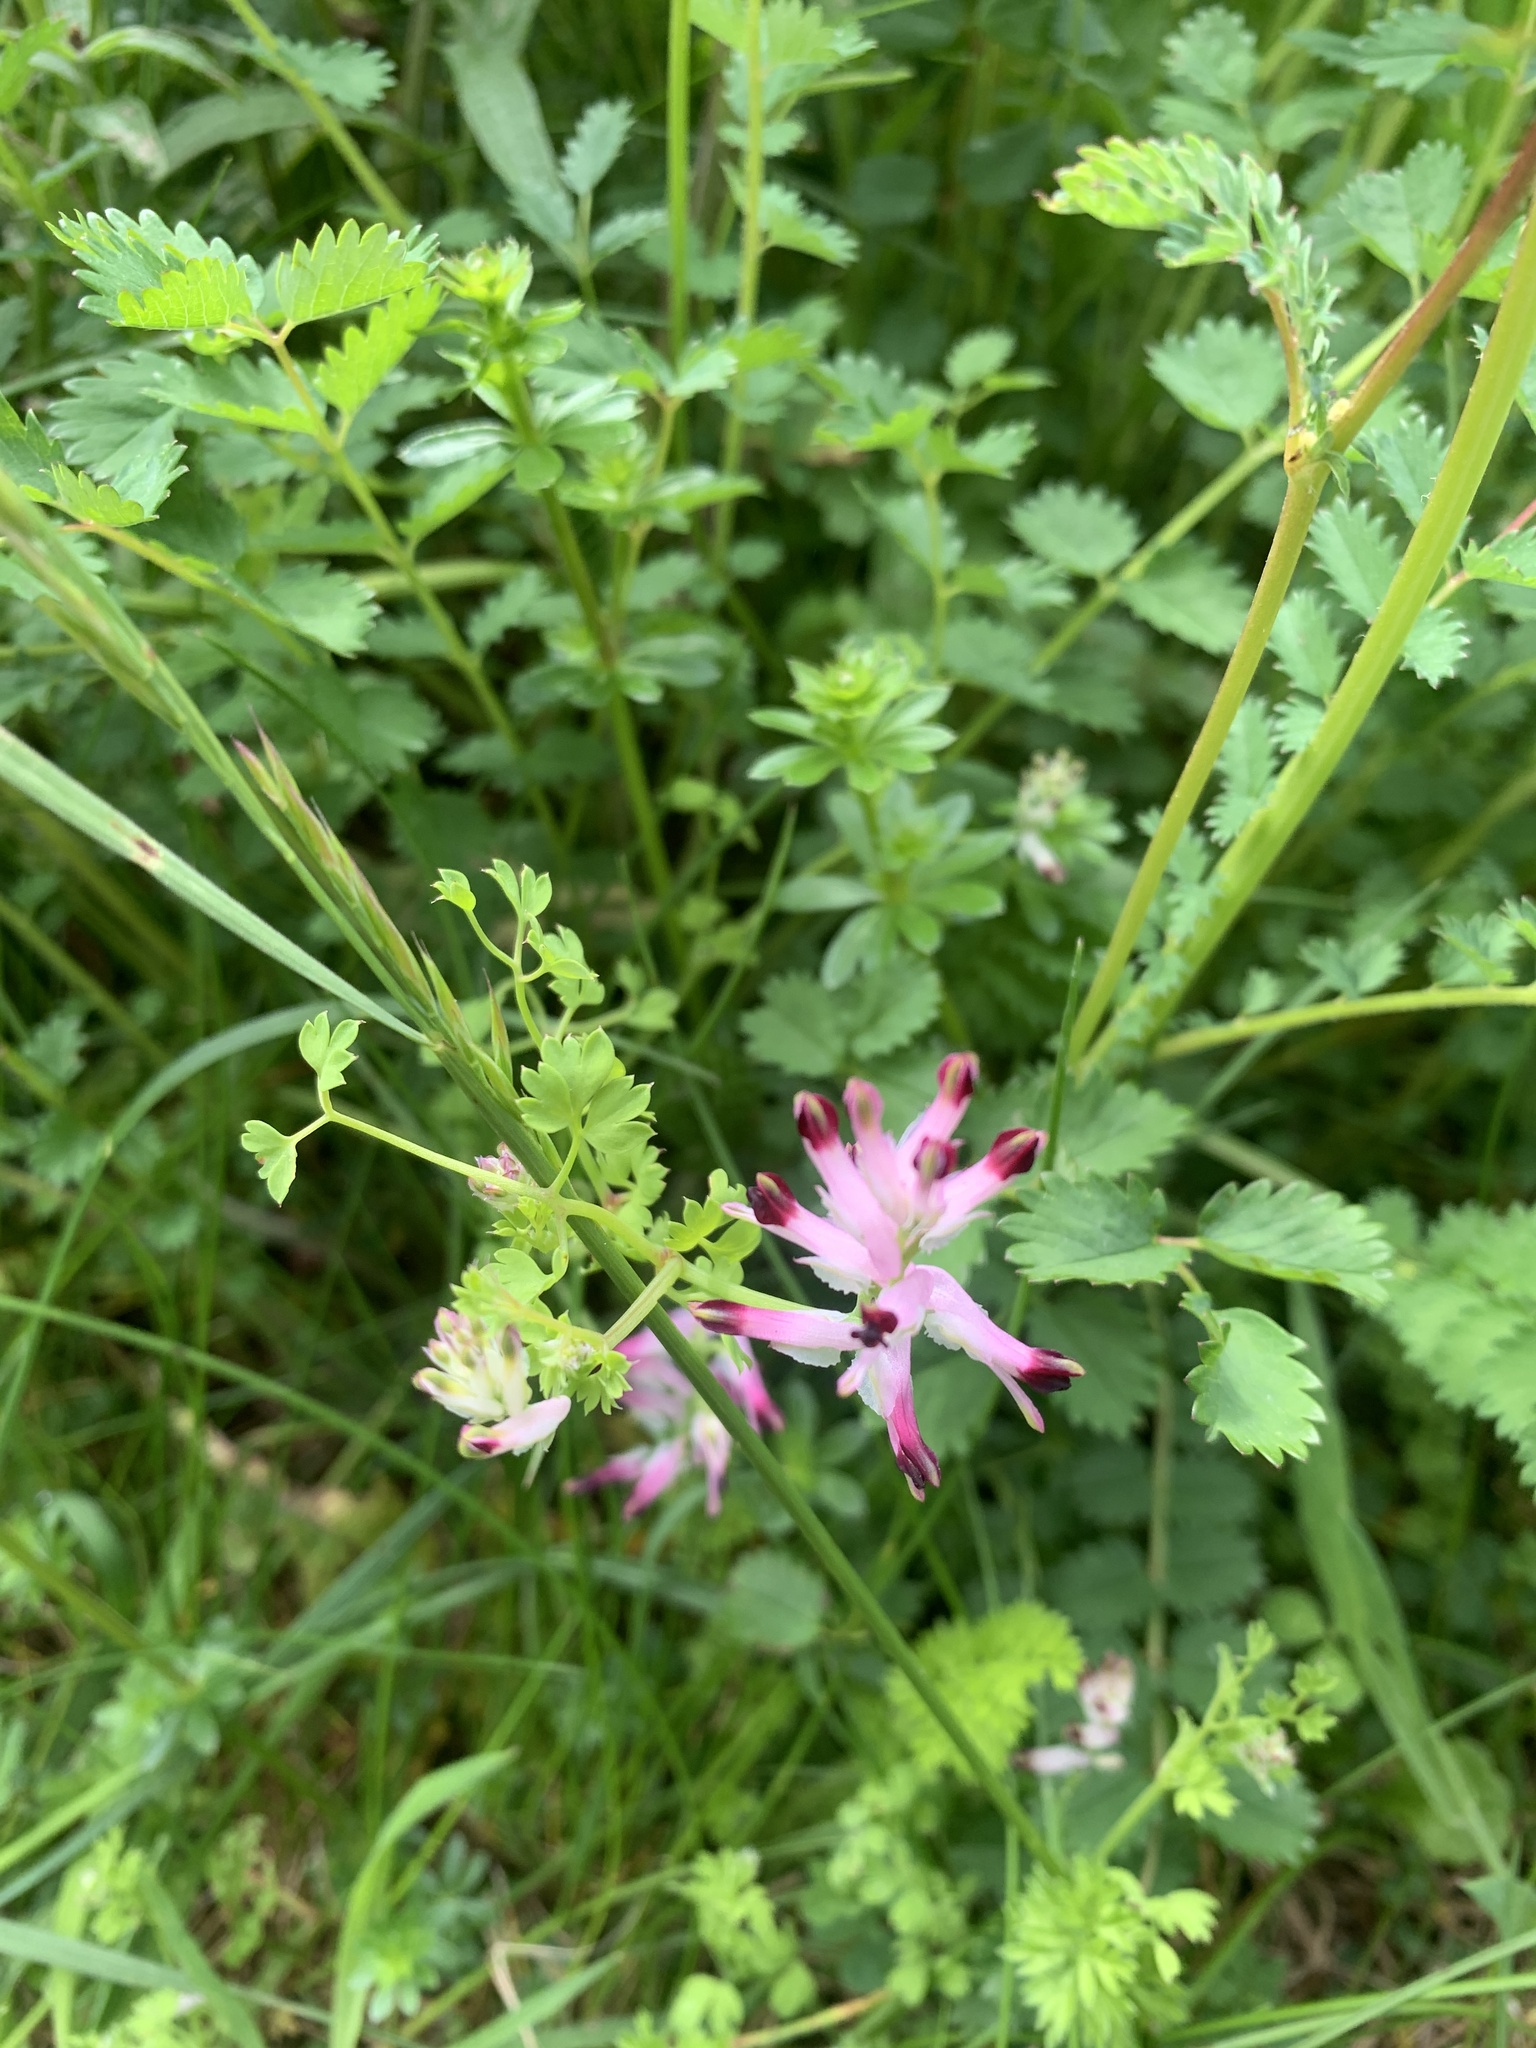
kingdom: Plantae
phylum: Tracheophyta
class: Magnoliopsida
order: Ranunculales
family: Papaveraceae
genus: Fumaria
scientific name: Fumaria muralis
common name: Common ramping-fumitory
